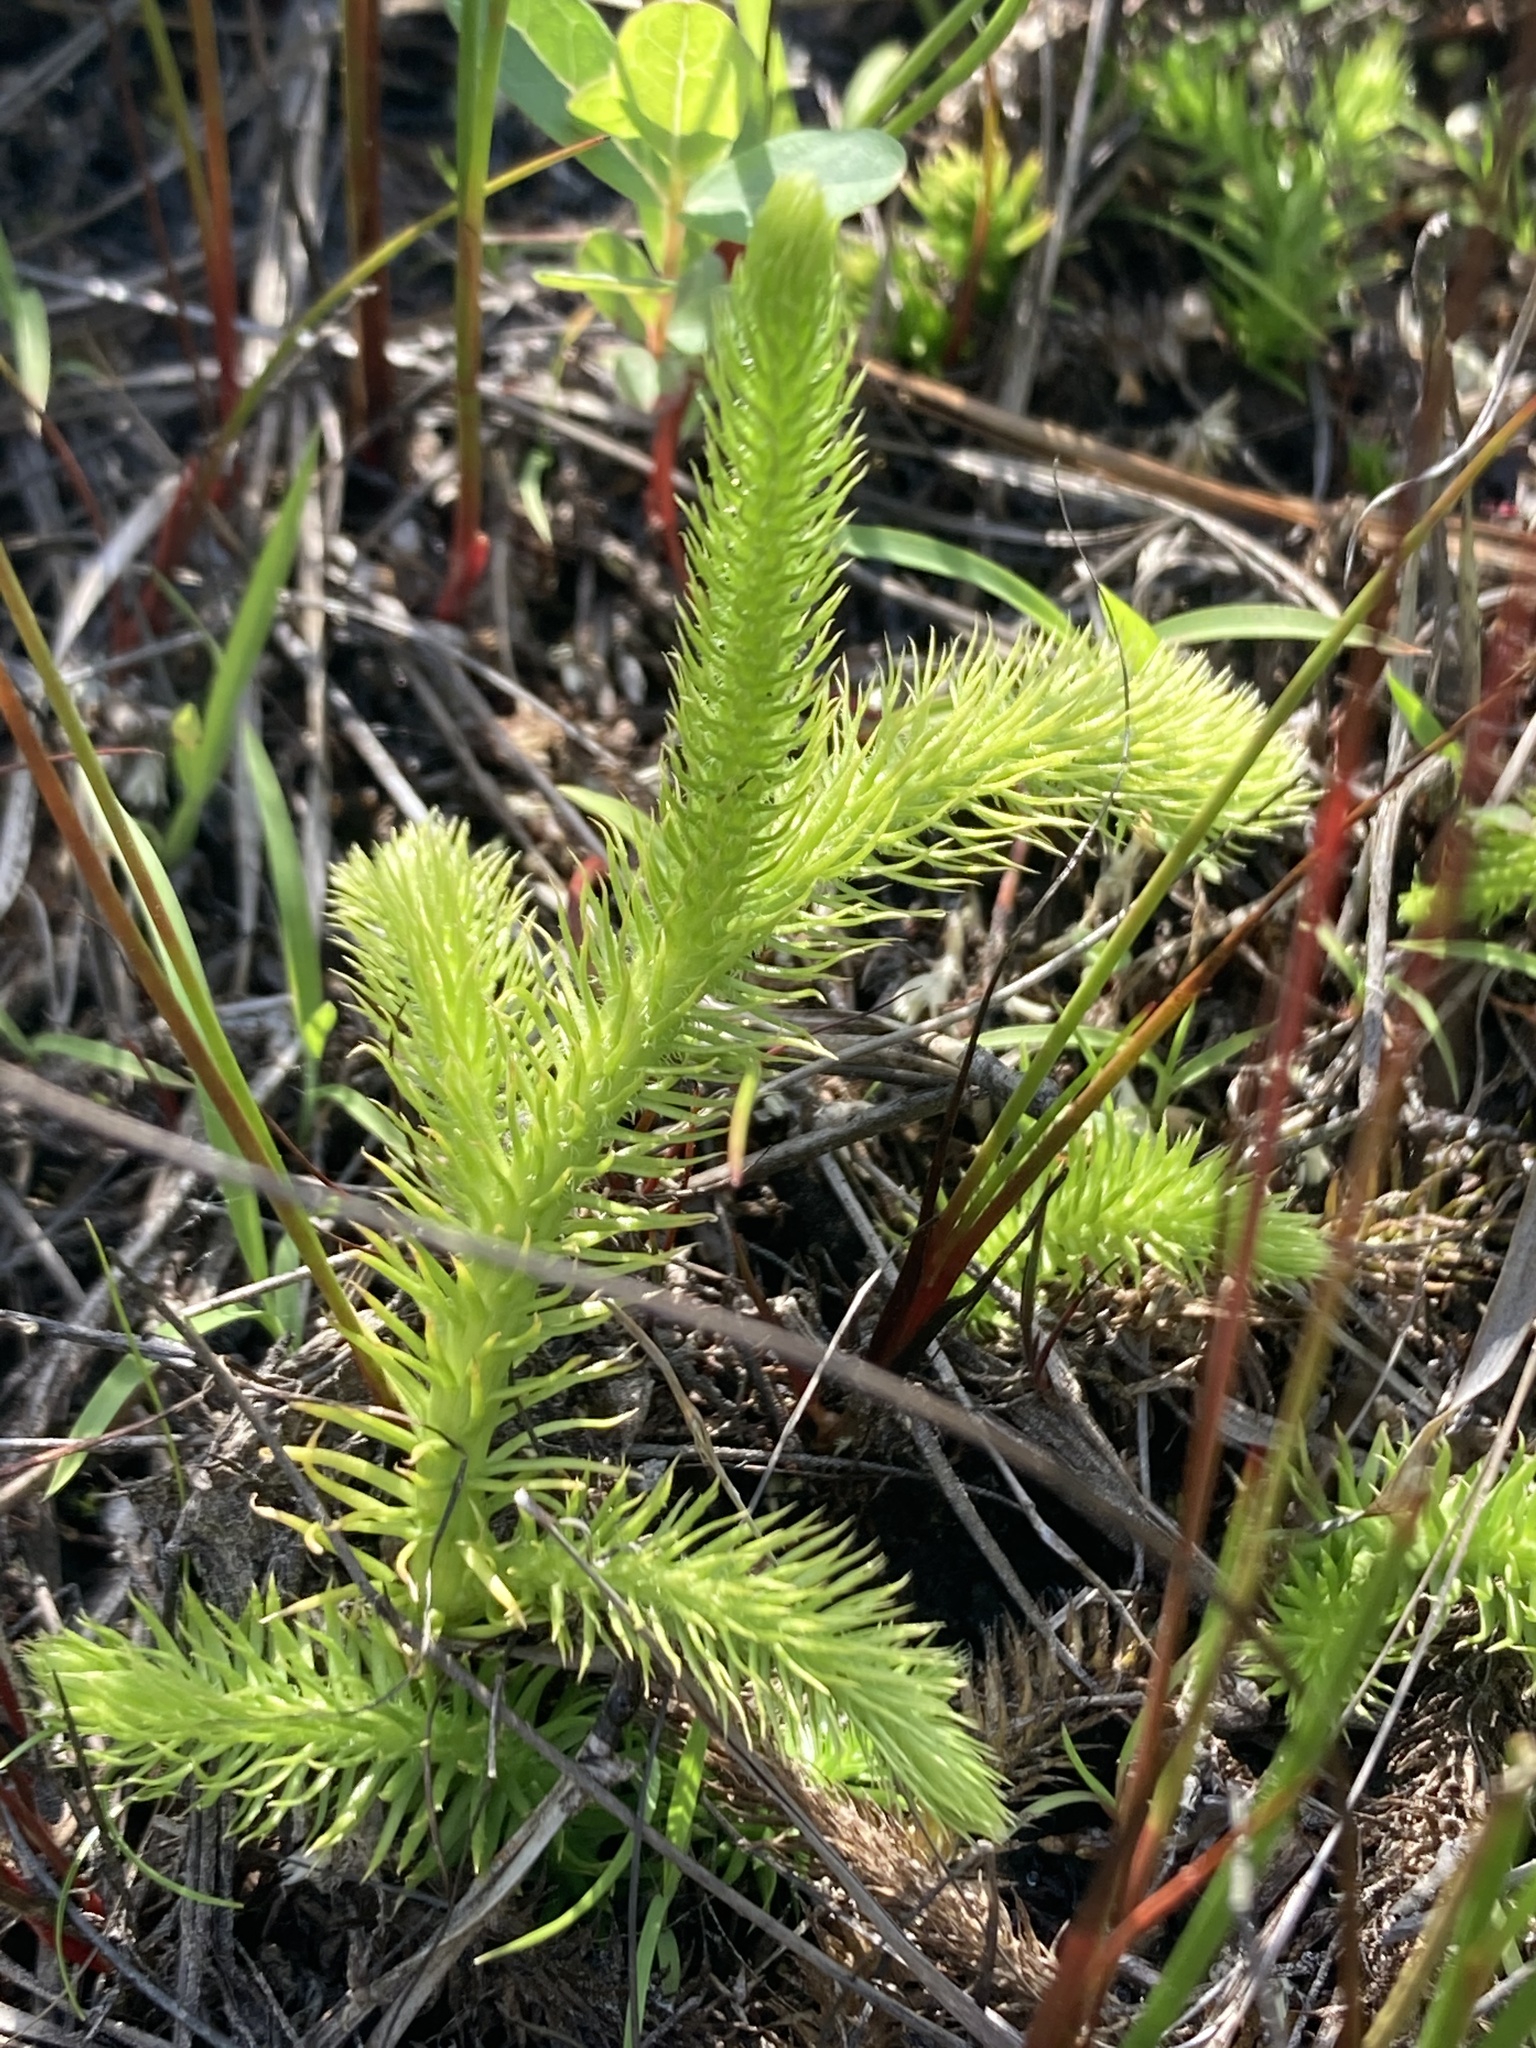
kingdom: Plantae
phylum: Tracheophyta
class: Lycopodiopsida
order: Lycopodiales
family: Lycopodiaceae
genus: Lycopodiella
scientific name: Lycopodiella alopecuroides
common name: Foxtail clubmoss
